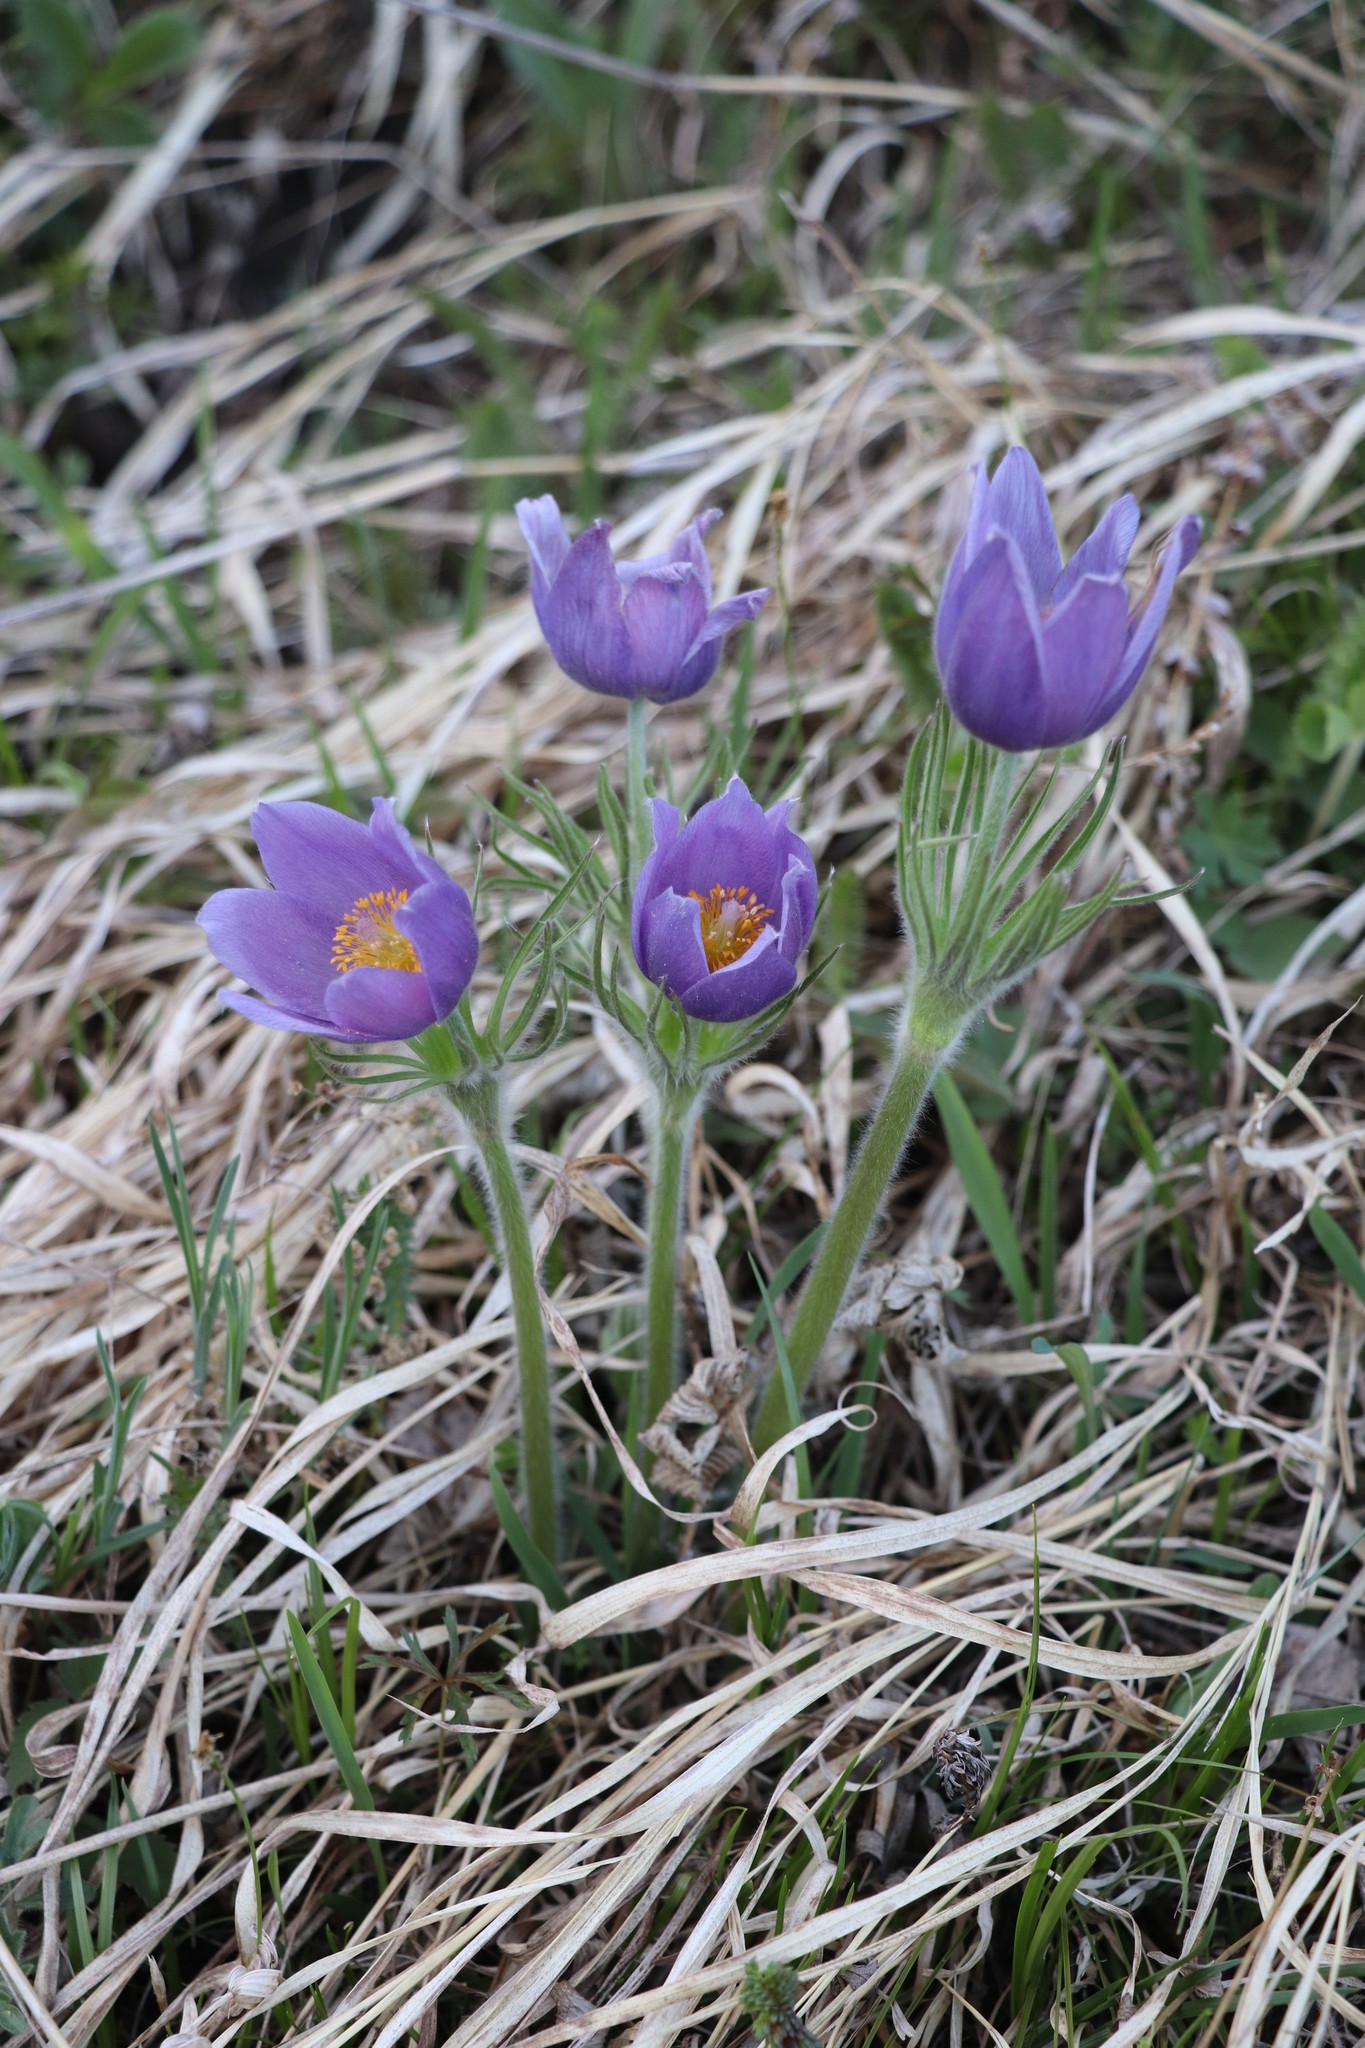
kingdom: Plantae
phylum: Tracheophyta
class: Magnoliopsida
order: Ranunculales
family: Ranunculaceae
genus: Pulsatilla
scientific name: Pulsatilla patens
